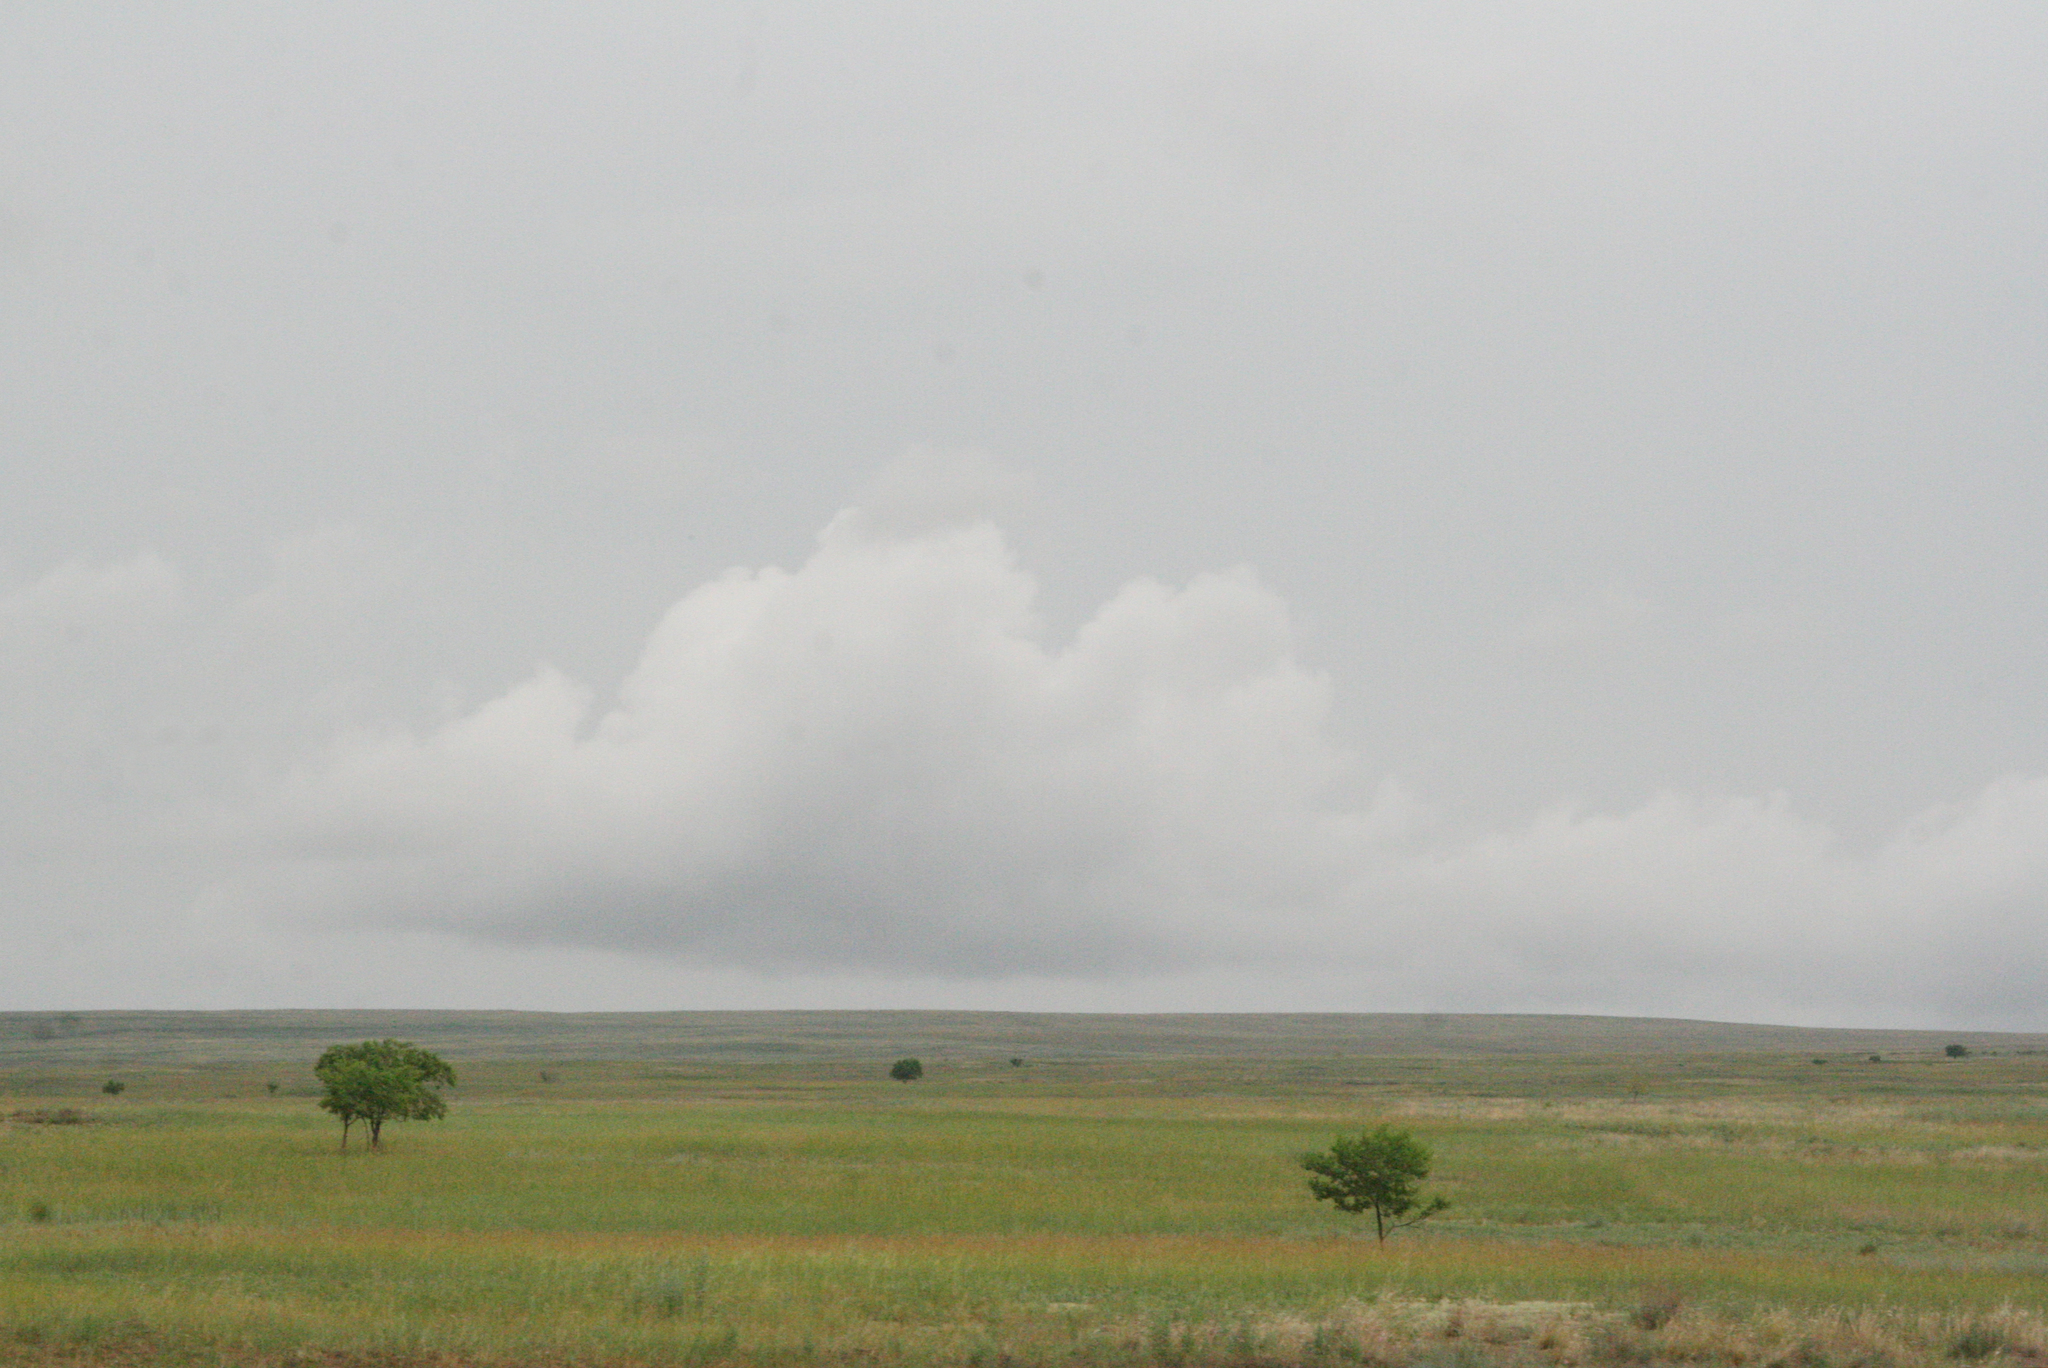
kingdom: Plantae
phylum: Tracheophyta
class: Magnoliopsida
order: Rosales
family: Ulmaceae
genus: Ulmus
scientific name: Ulmus pumila
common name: Siberian elm
